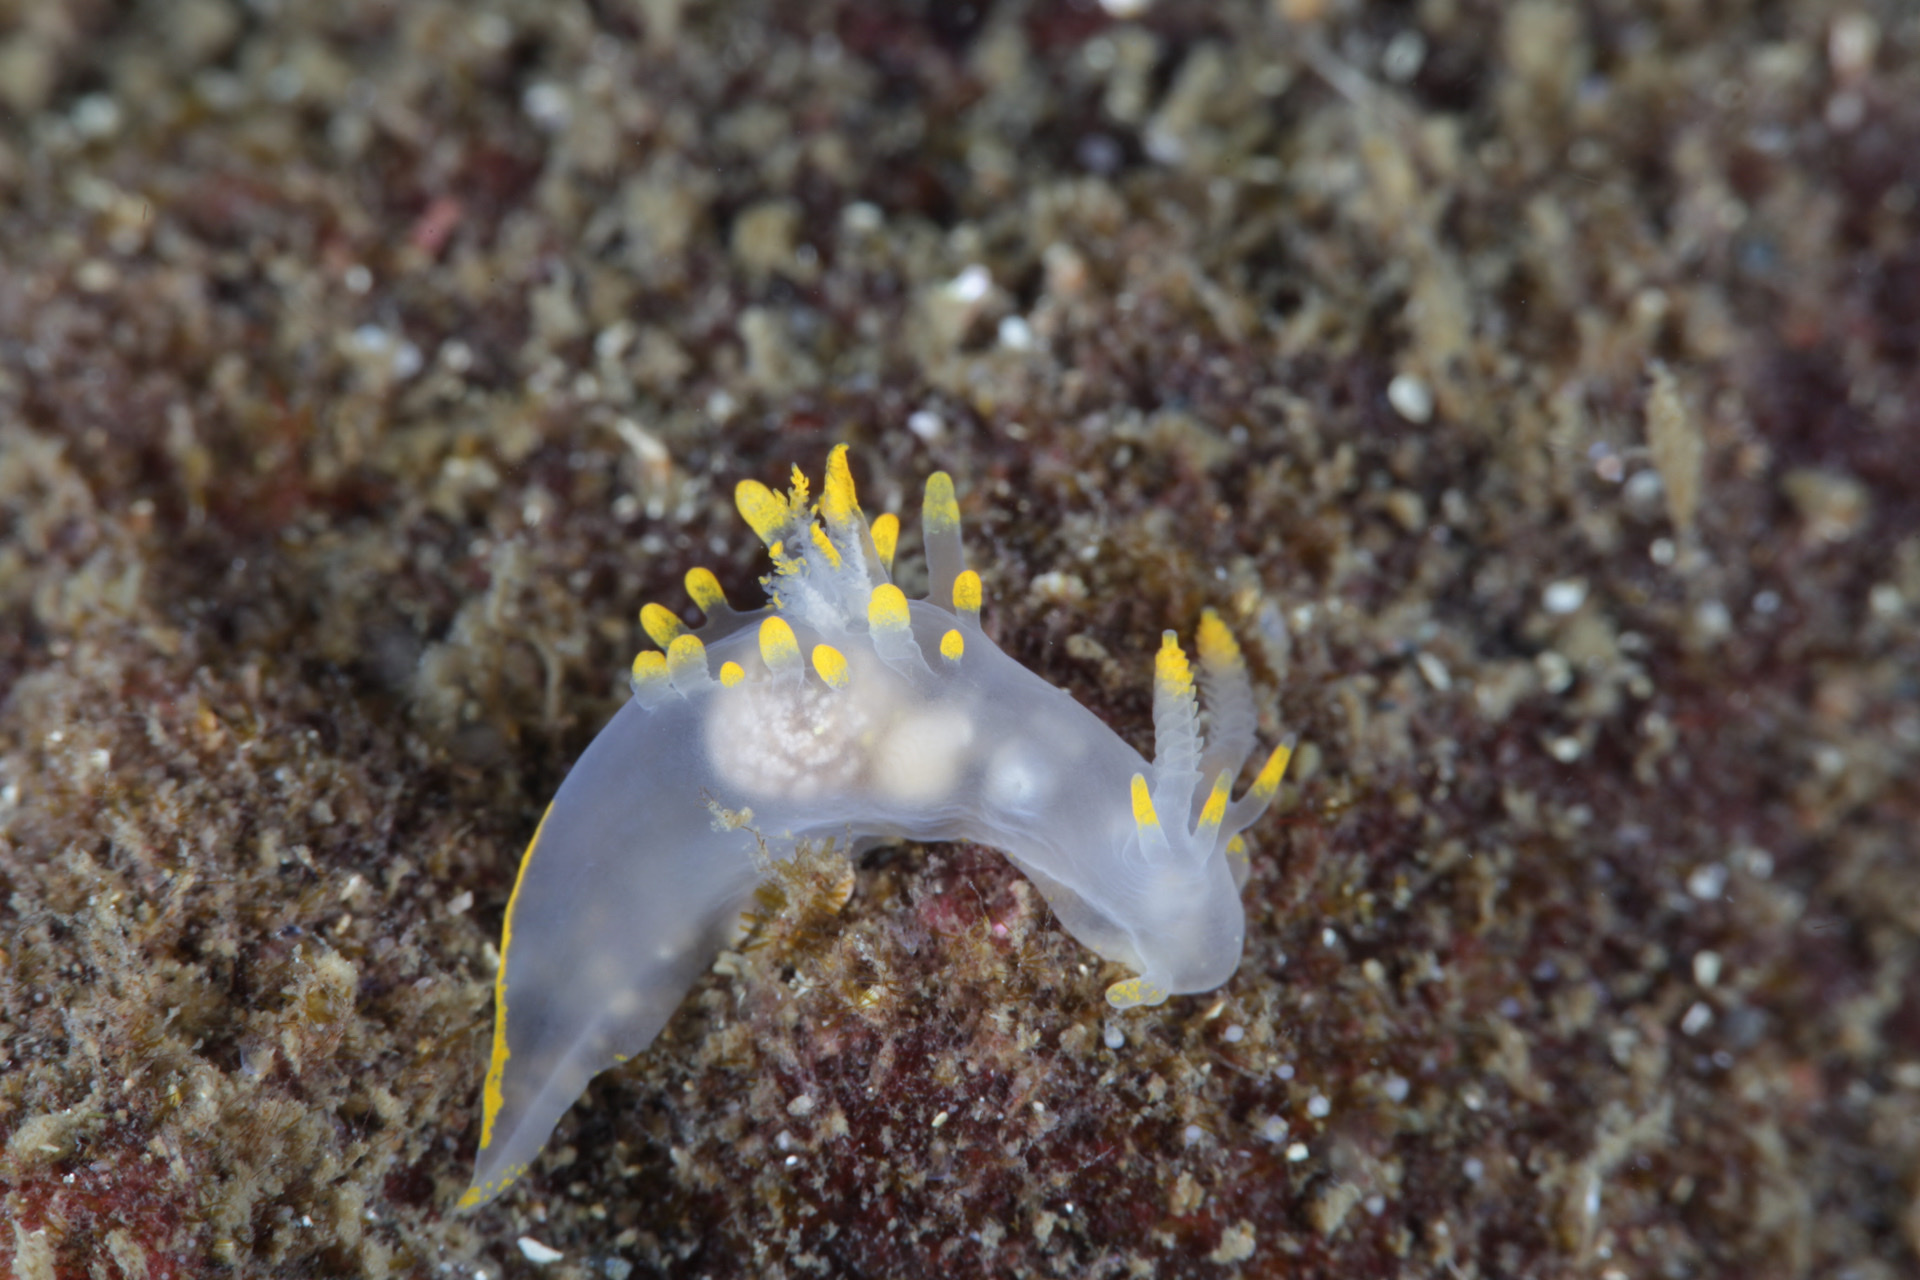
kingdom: Animalia
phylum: Mollusca
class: Gastropoda
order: Nudibranchia
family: Goniodorididae
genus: Ancula
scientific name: Ancula gibbosa
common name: Atlantic ancula
